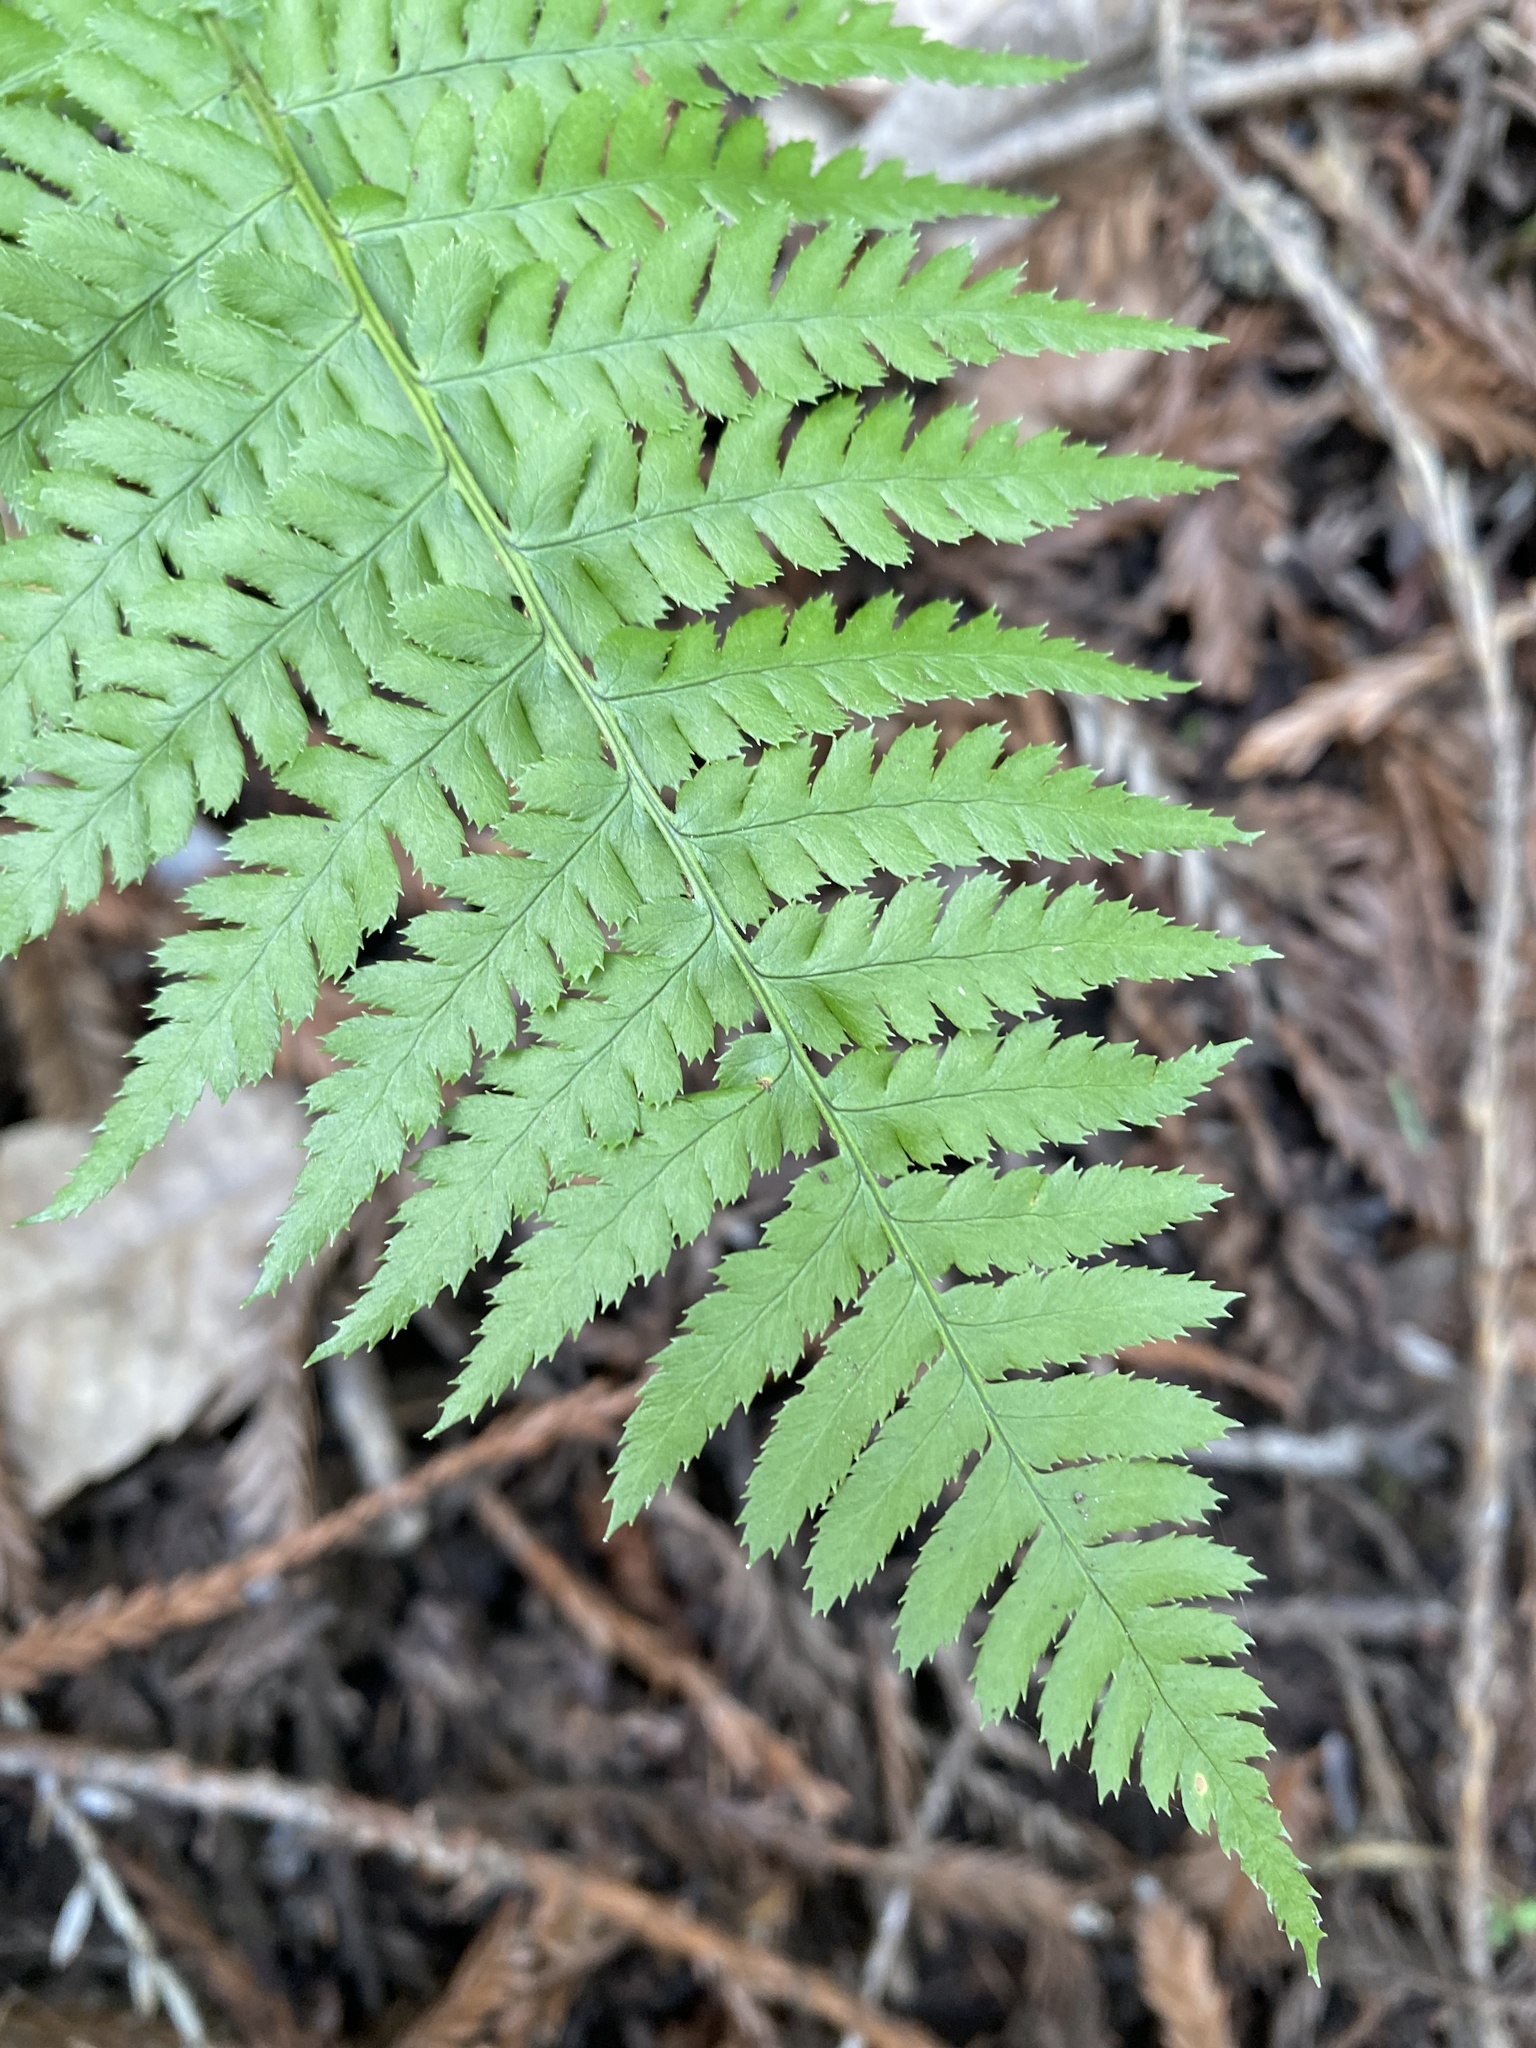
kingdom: Plantae
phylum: Tracheophyta
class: Polypodiopsida
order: Polypodiales
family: Dryopteridaceae
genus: Dryopteris
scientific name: Dryopteris arguta
